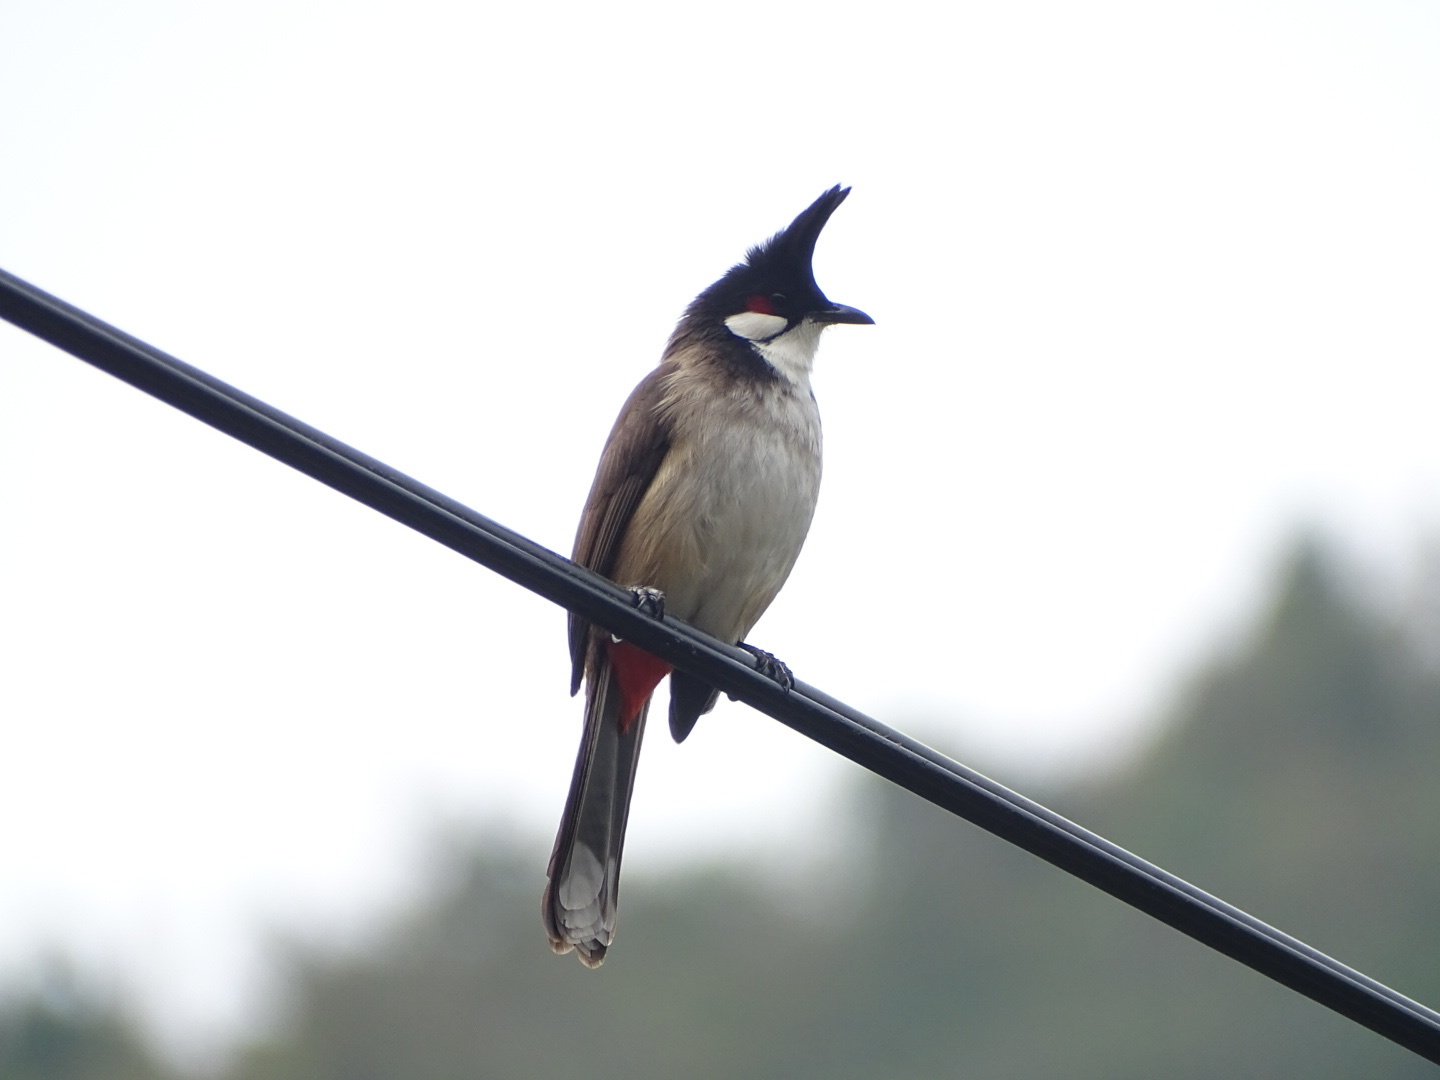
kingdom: Animalia
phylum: Chordata
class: Aves
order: Passeriformes
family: Pycnonotidae
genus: Pycnonotus
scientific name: Pycnonotus jocosus
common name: Red-whiskered bulbul
